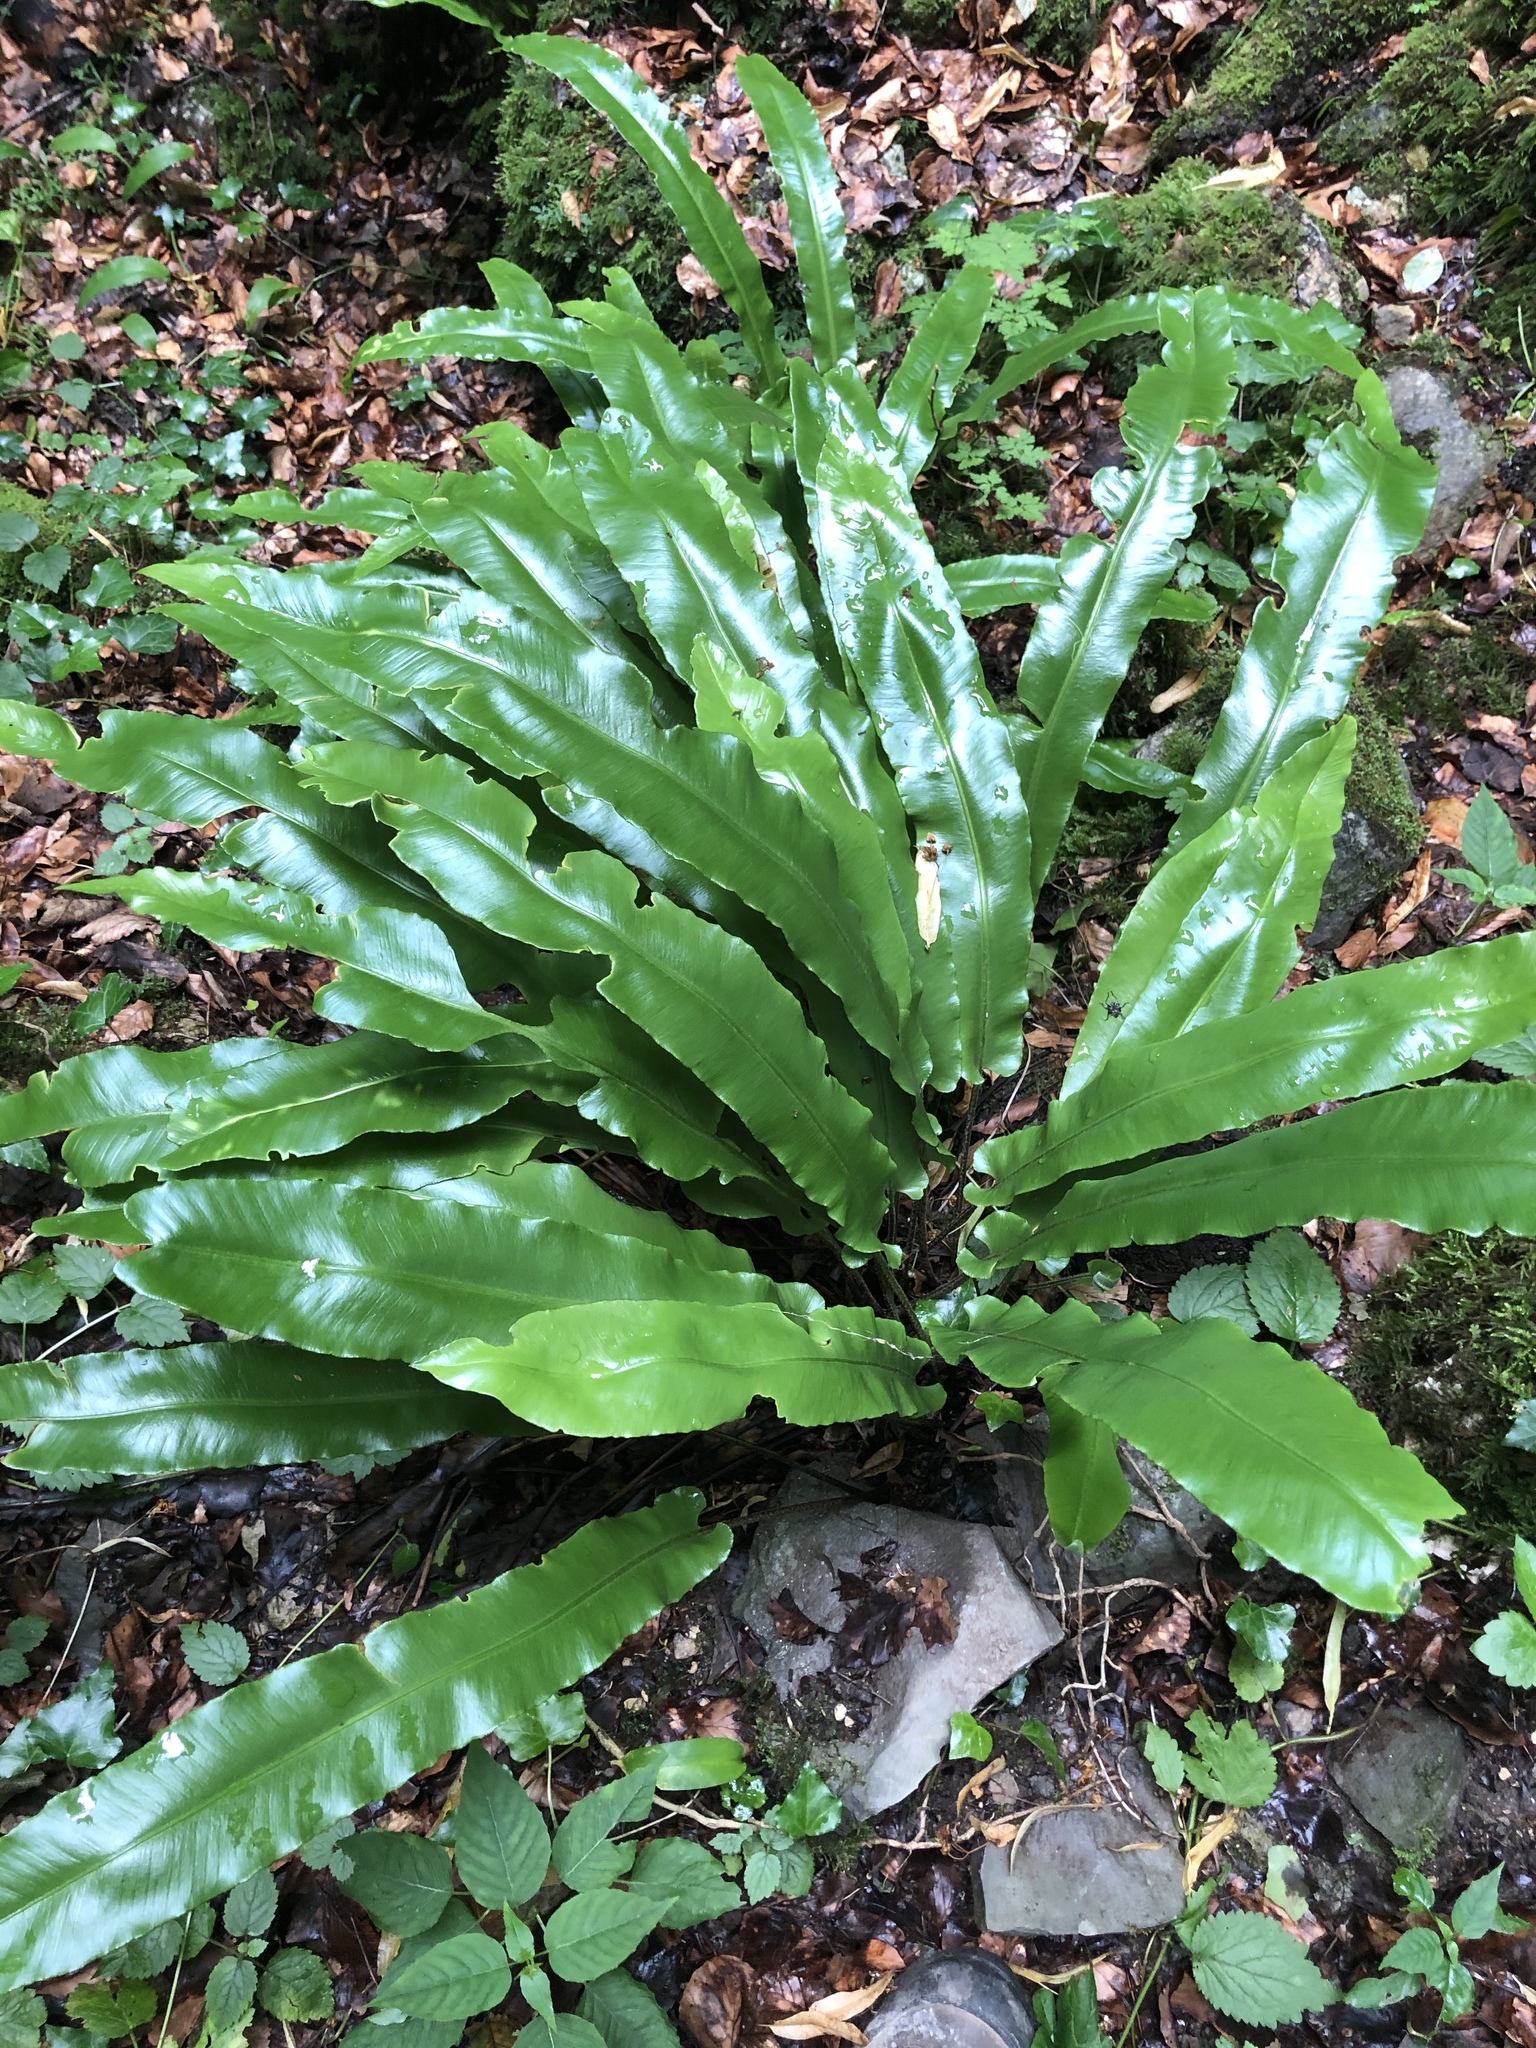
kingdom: Plantae
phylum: Tracheophyta
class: Polypodiopsida
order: Polypodiales
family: Aspleniaceae
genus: Asplenium
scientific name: Asplenium scolopendrium
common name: Hart's-tongue fern
